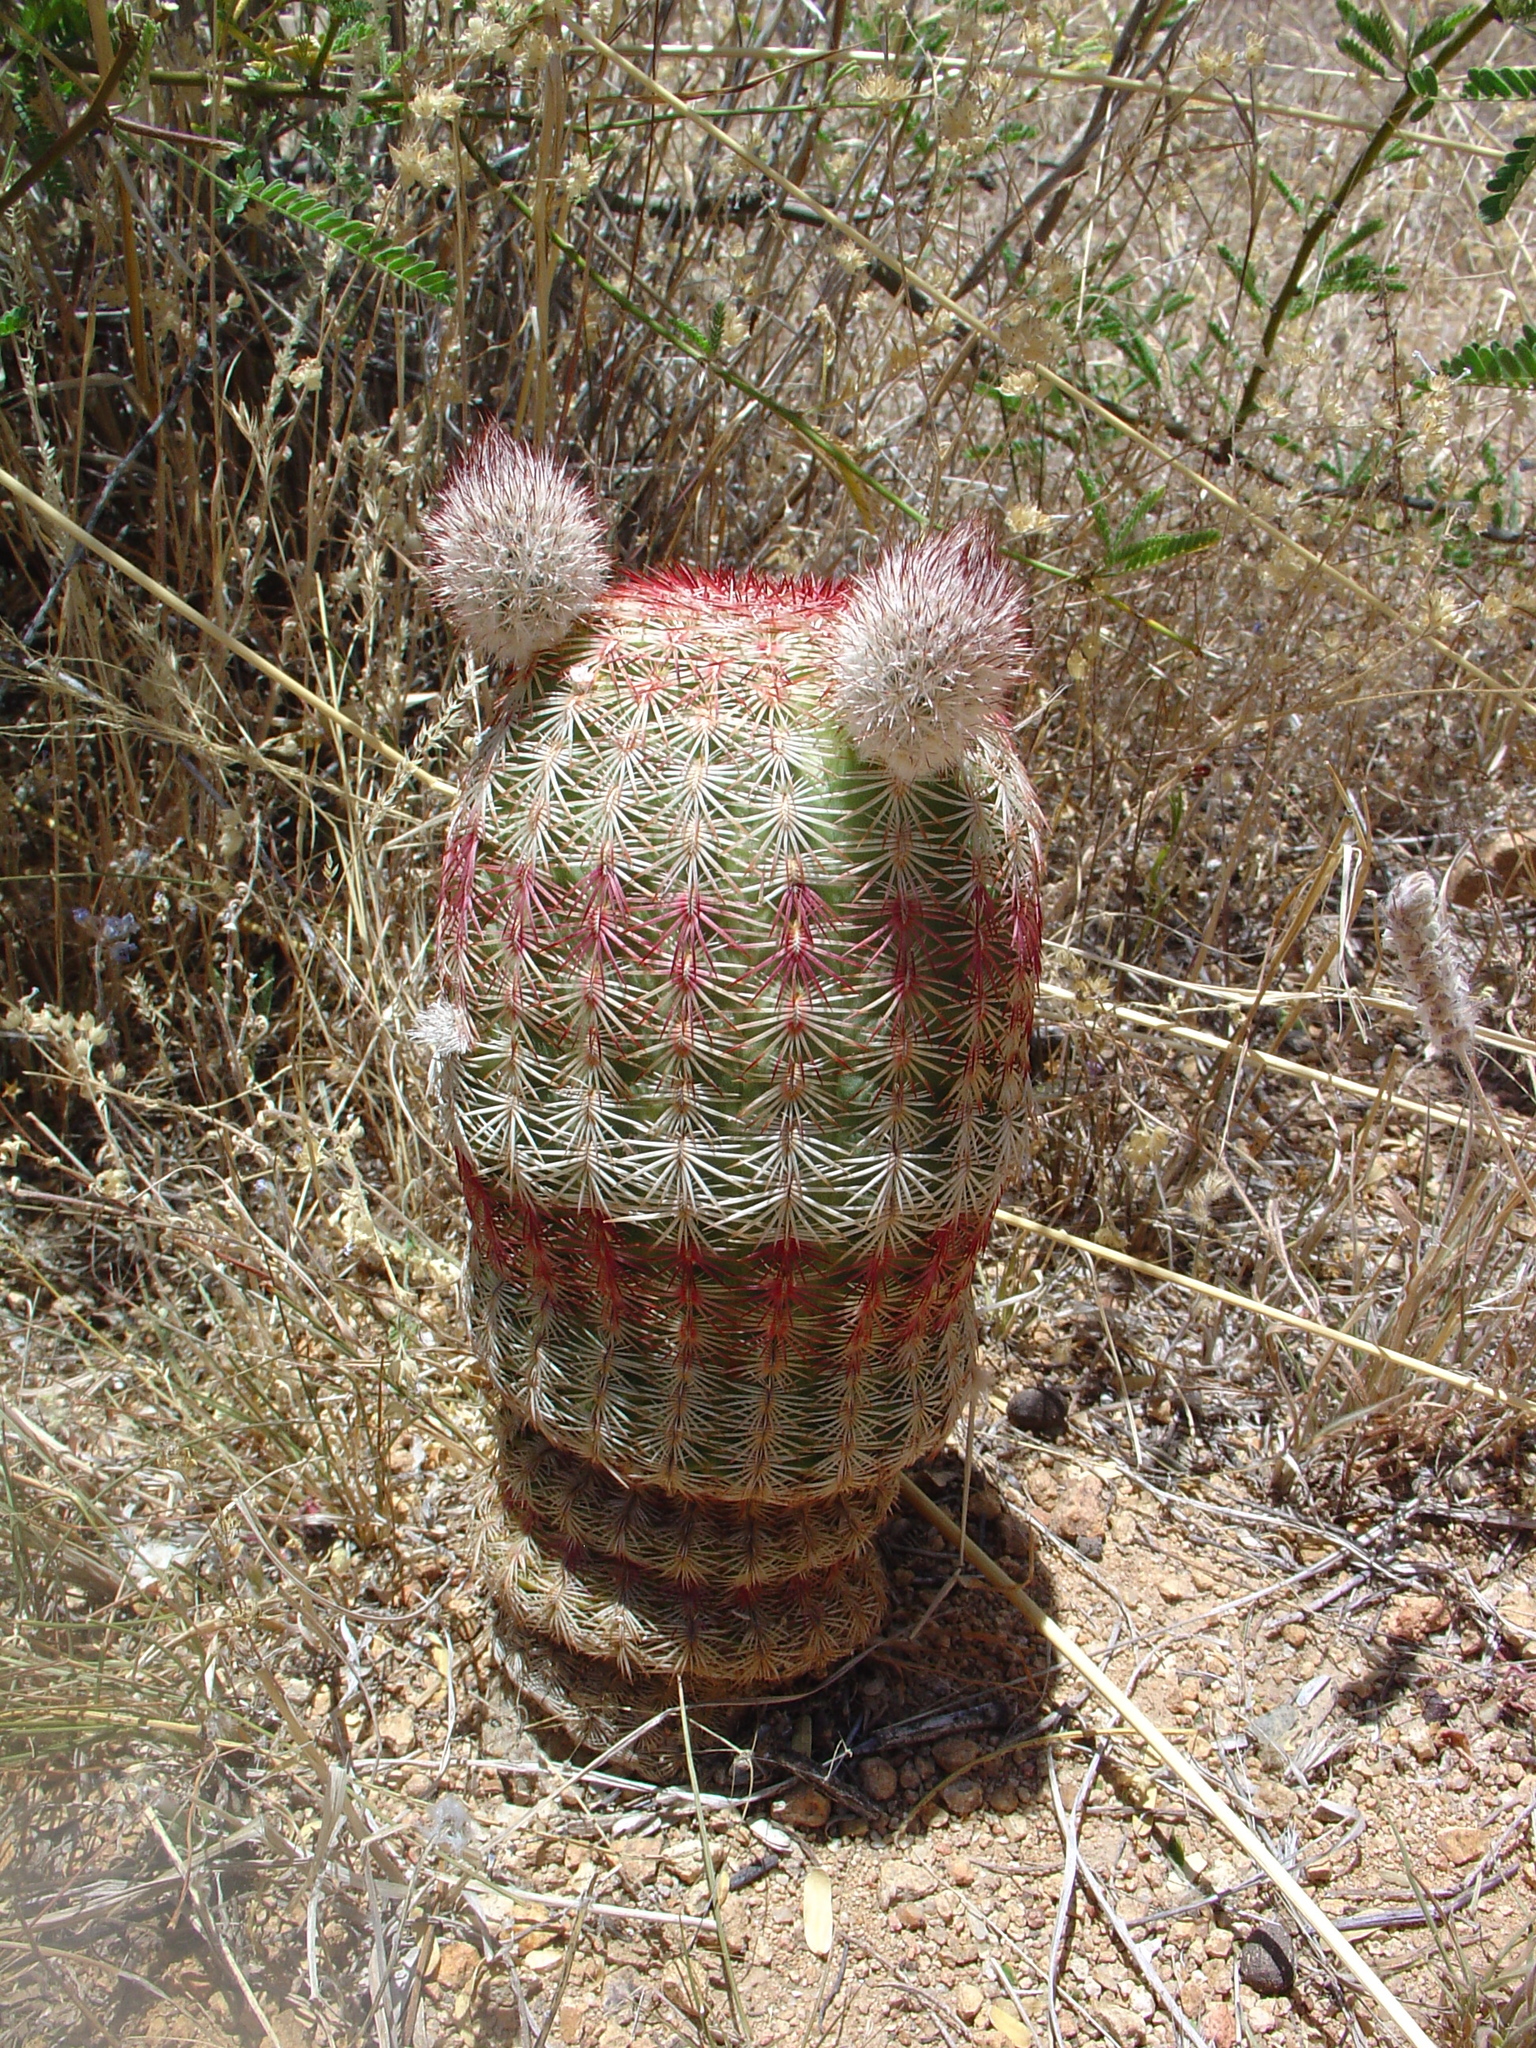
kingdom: Plantae
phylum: Tracheophyta
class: Magnoliopsida
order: Caryophyllales
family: Cactaceae
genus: Echinocereus
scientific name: Echinocereus rigidissimus
